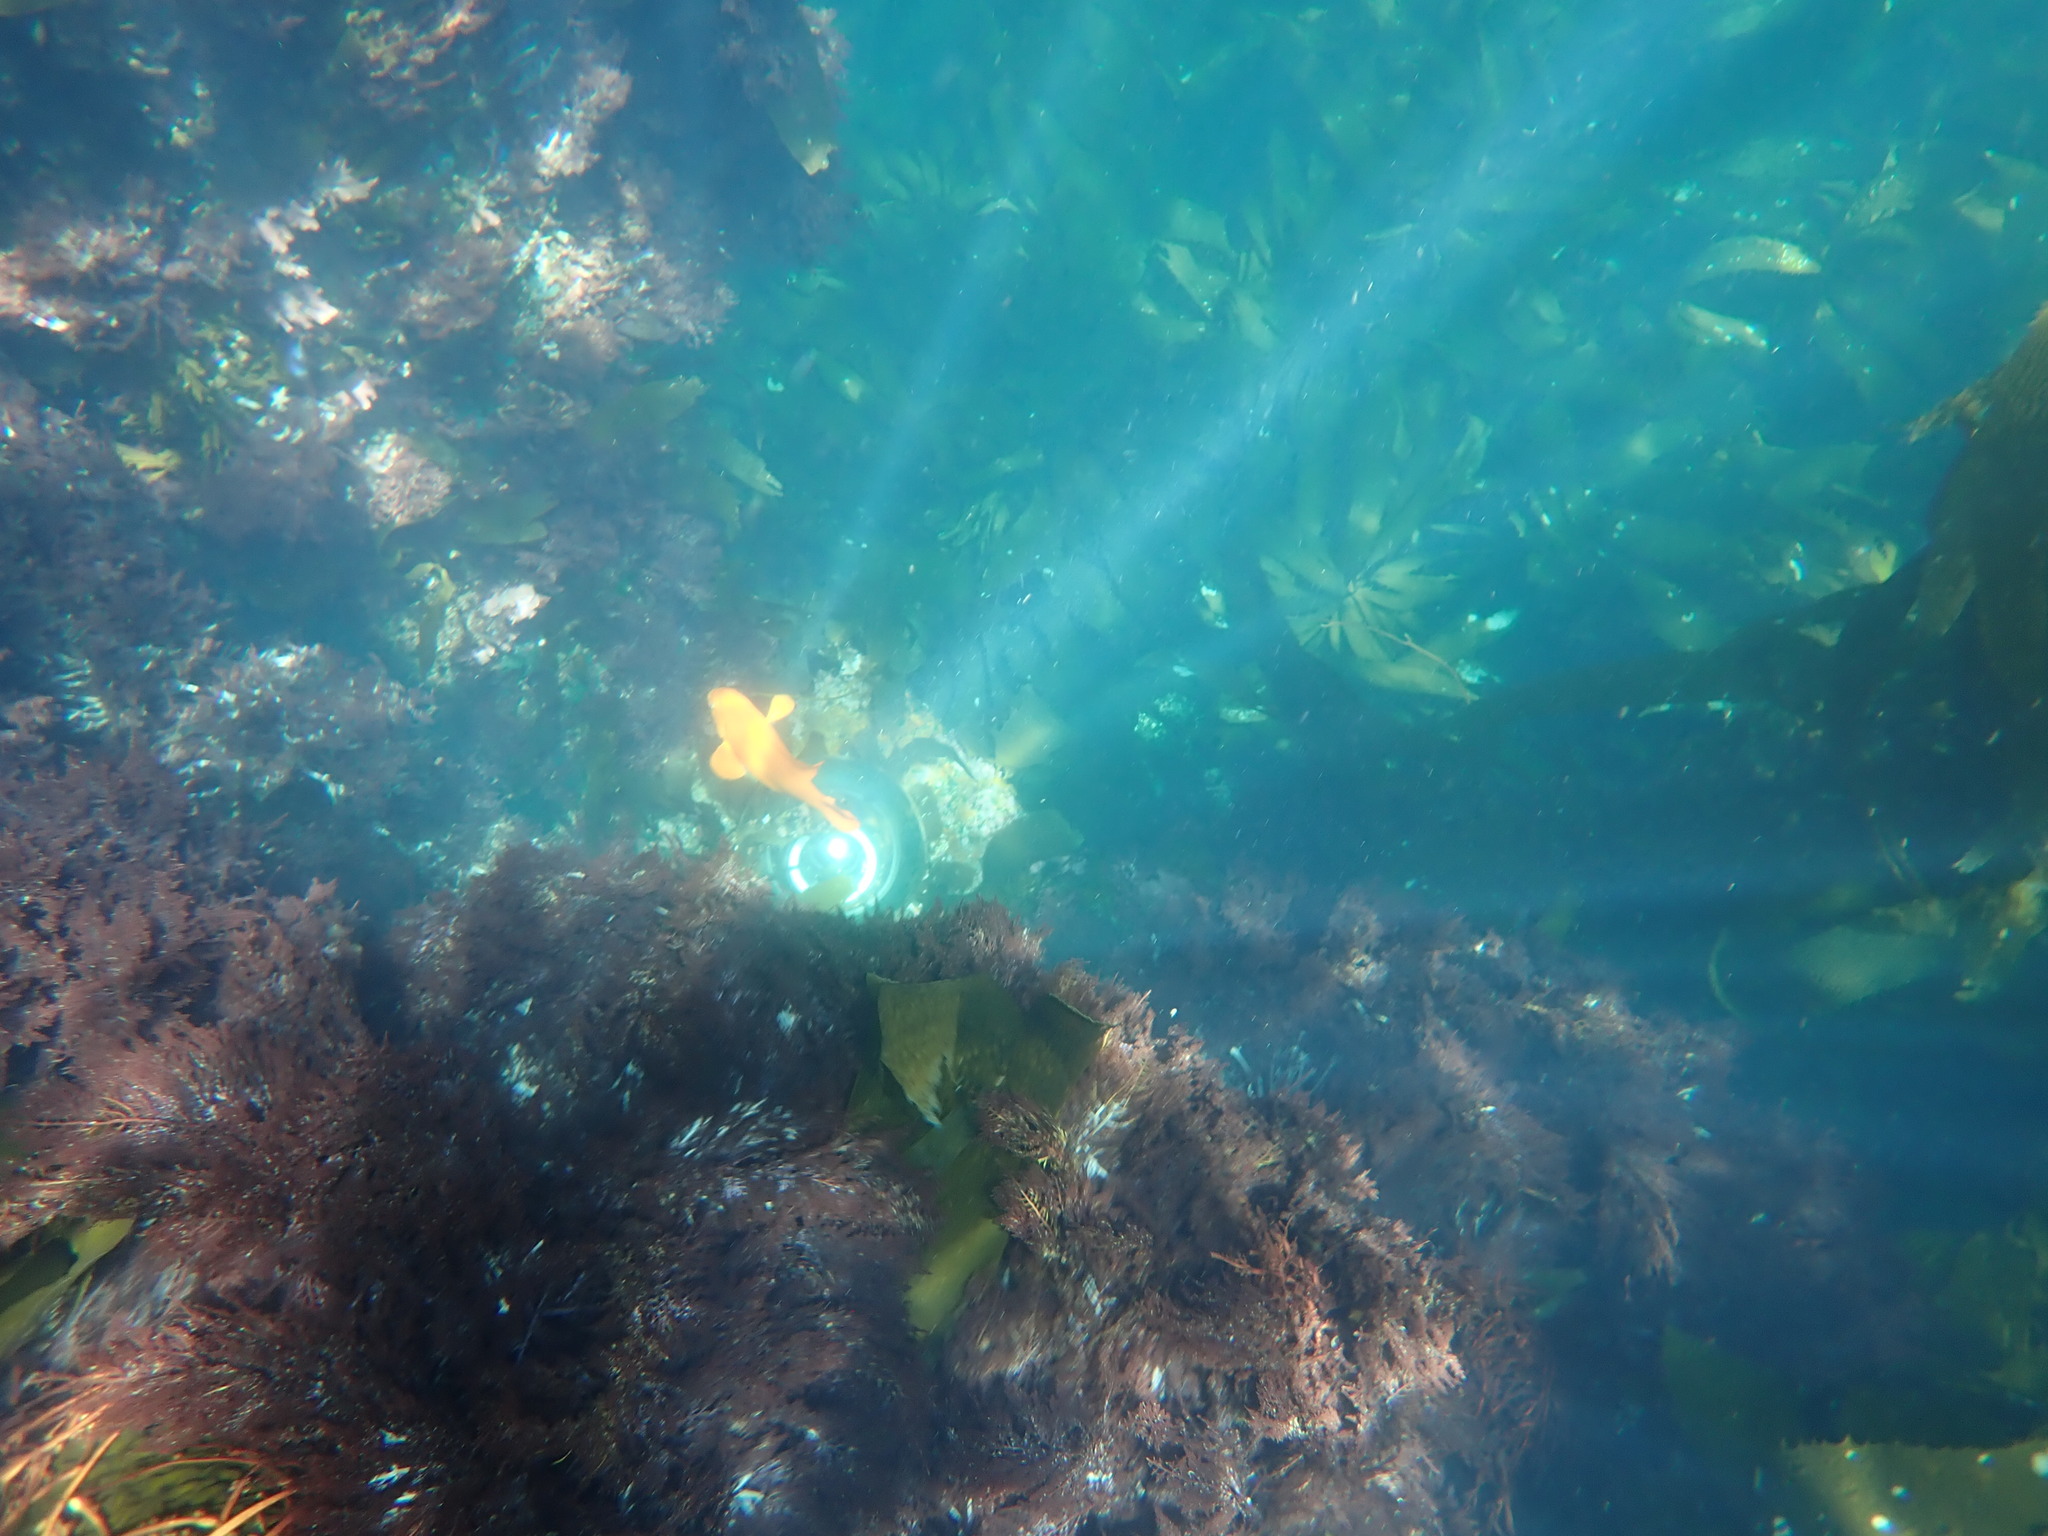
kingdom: Animalia
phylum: Chordata
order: Perciformes
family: Pomacentridae
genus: Hypsypops
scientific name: Hypsypops rubicundus
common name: Garibaldi
